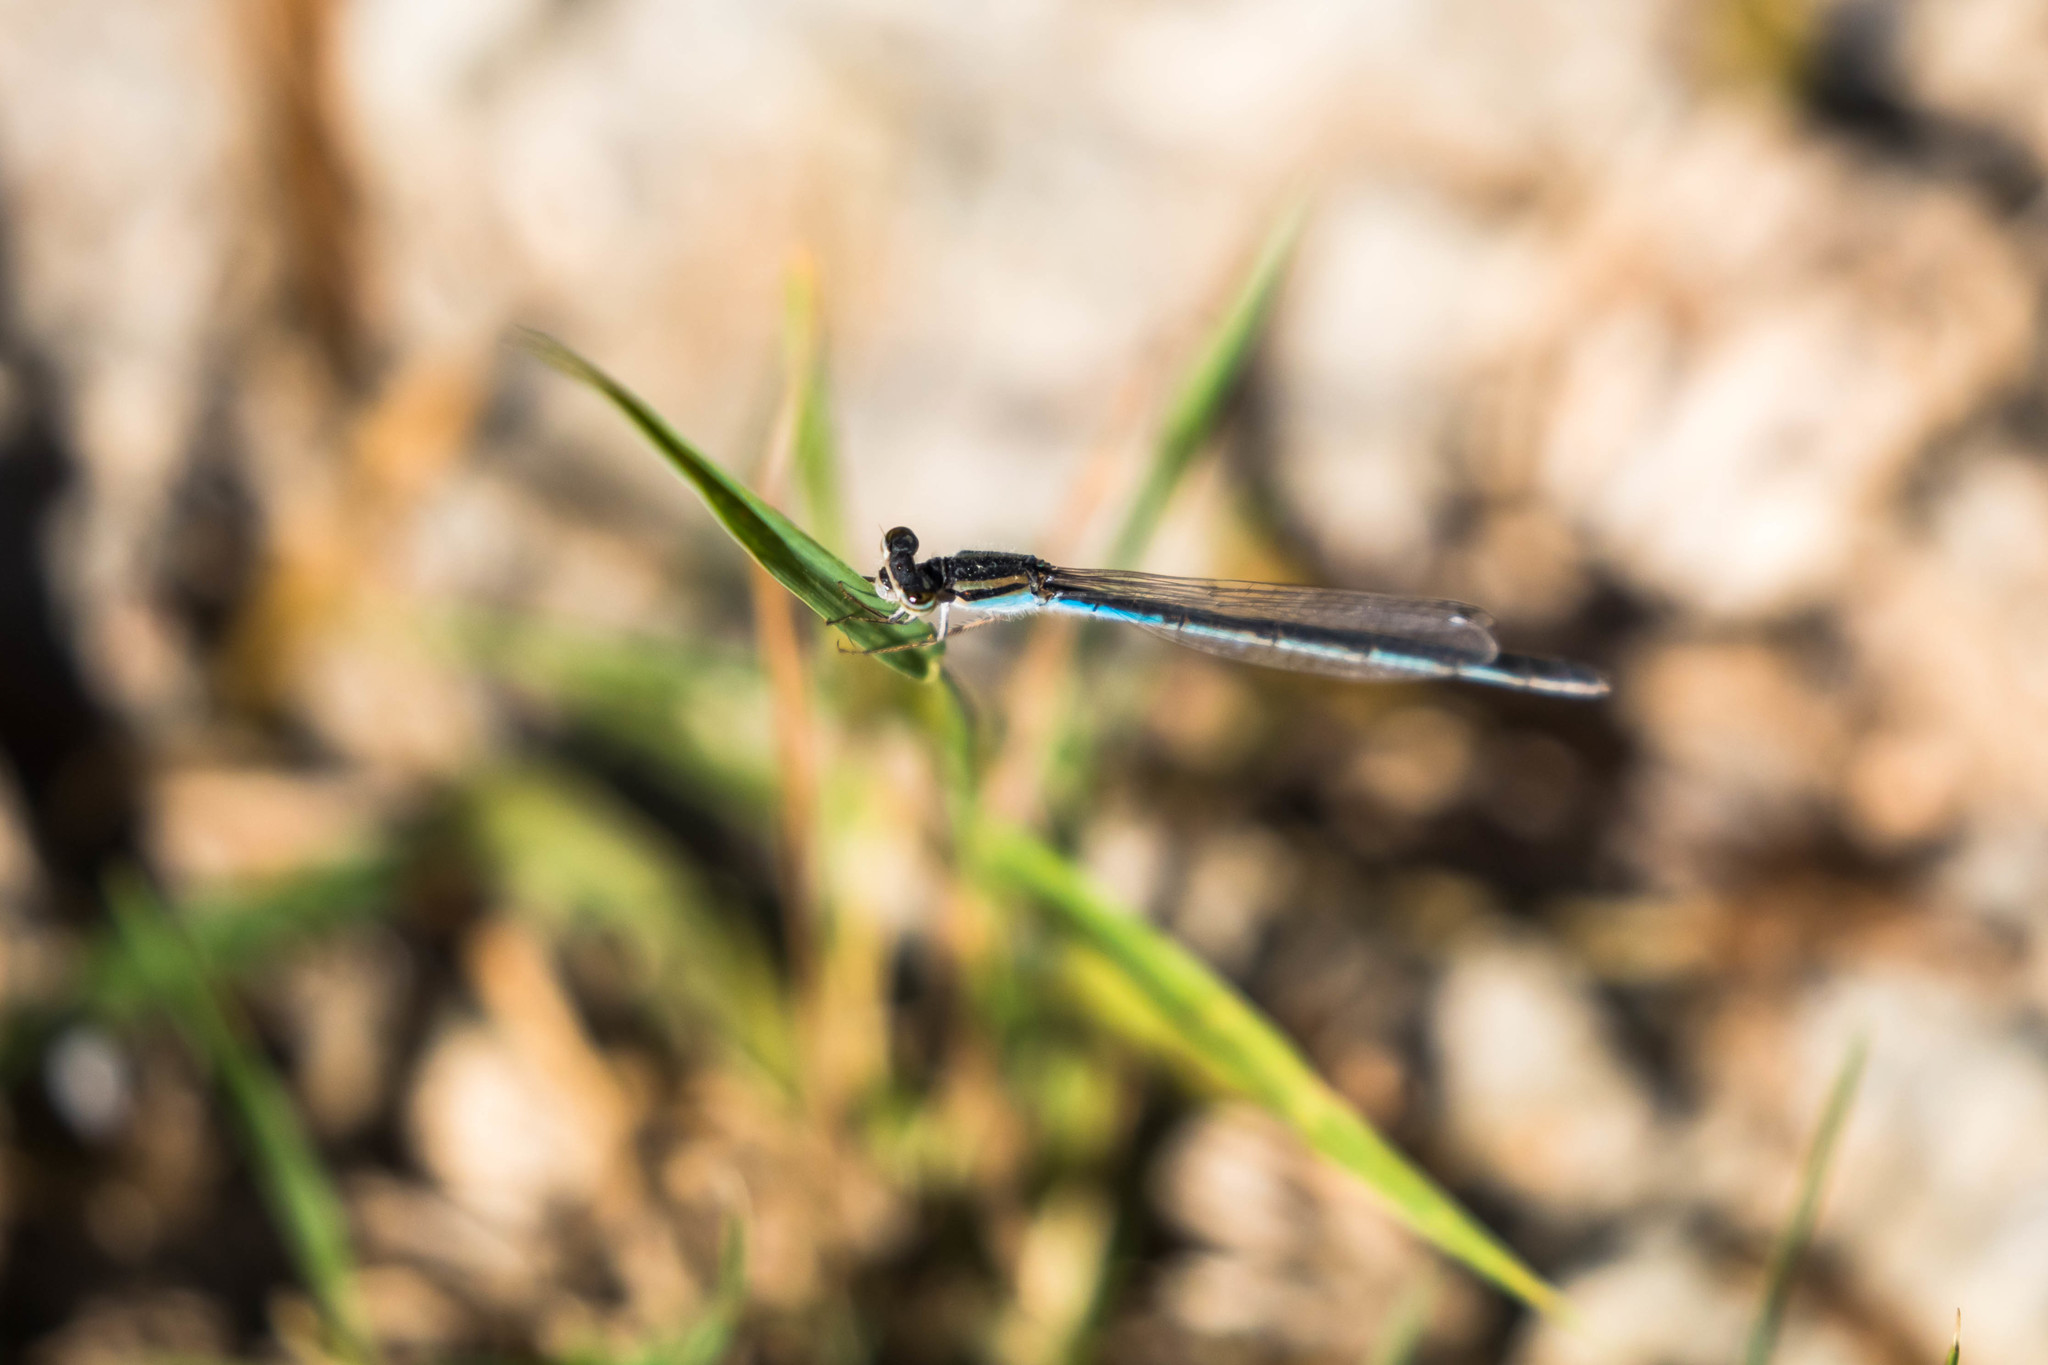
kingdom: Animalia
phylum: Arthropoda
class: Insecta
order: Odonata
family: Coenagrionidae
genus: Enallagma
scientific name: Enallagma civile
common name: Damselfly
